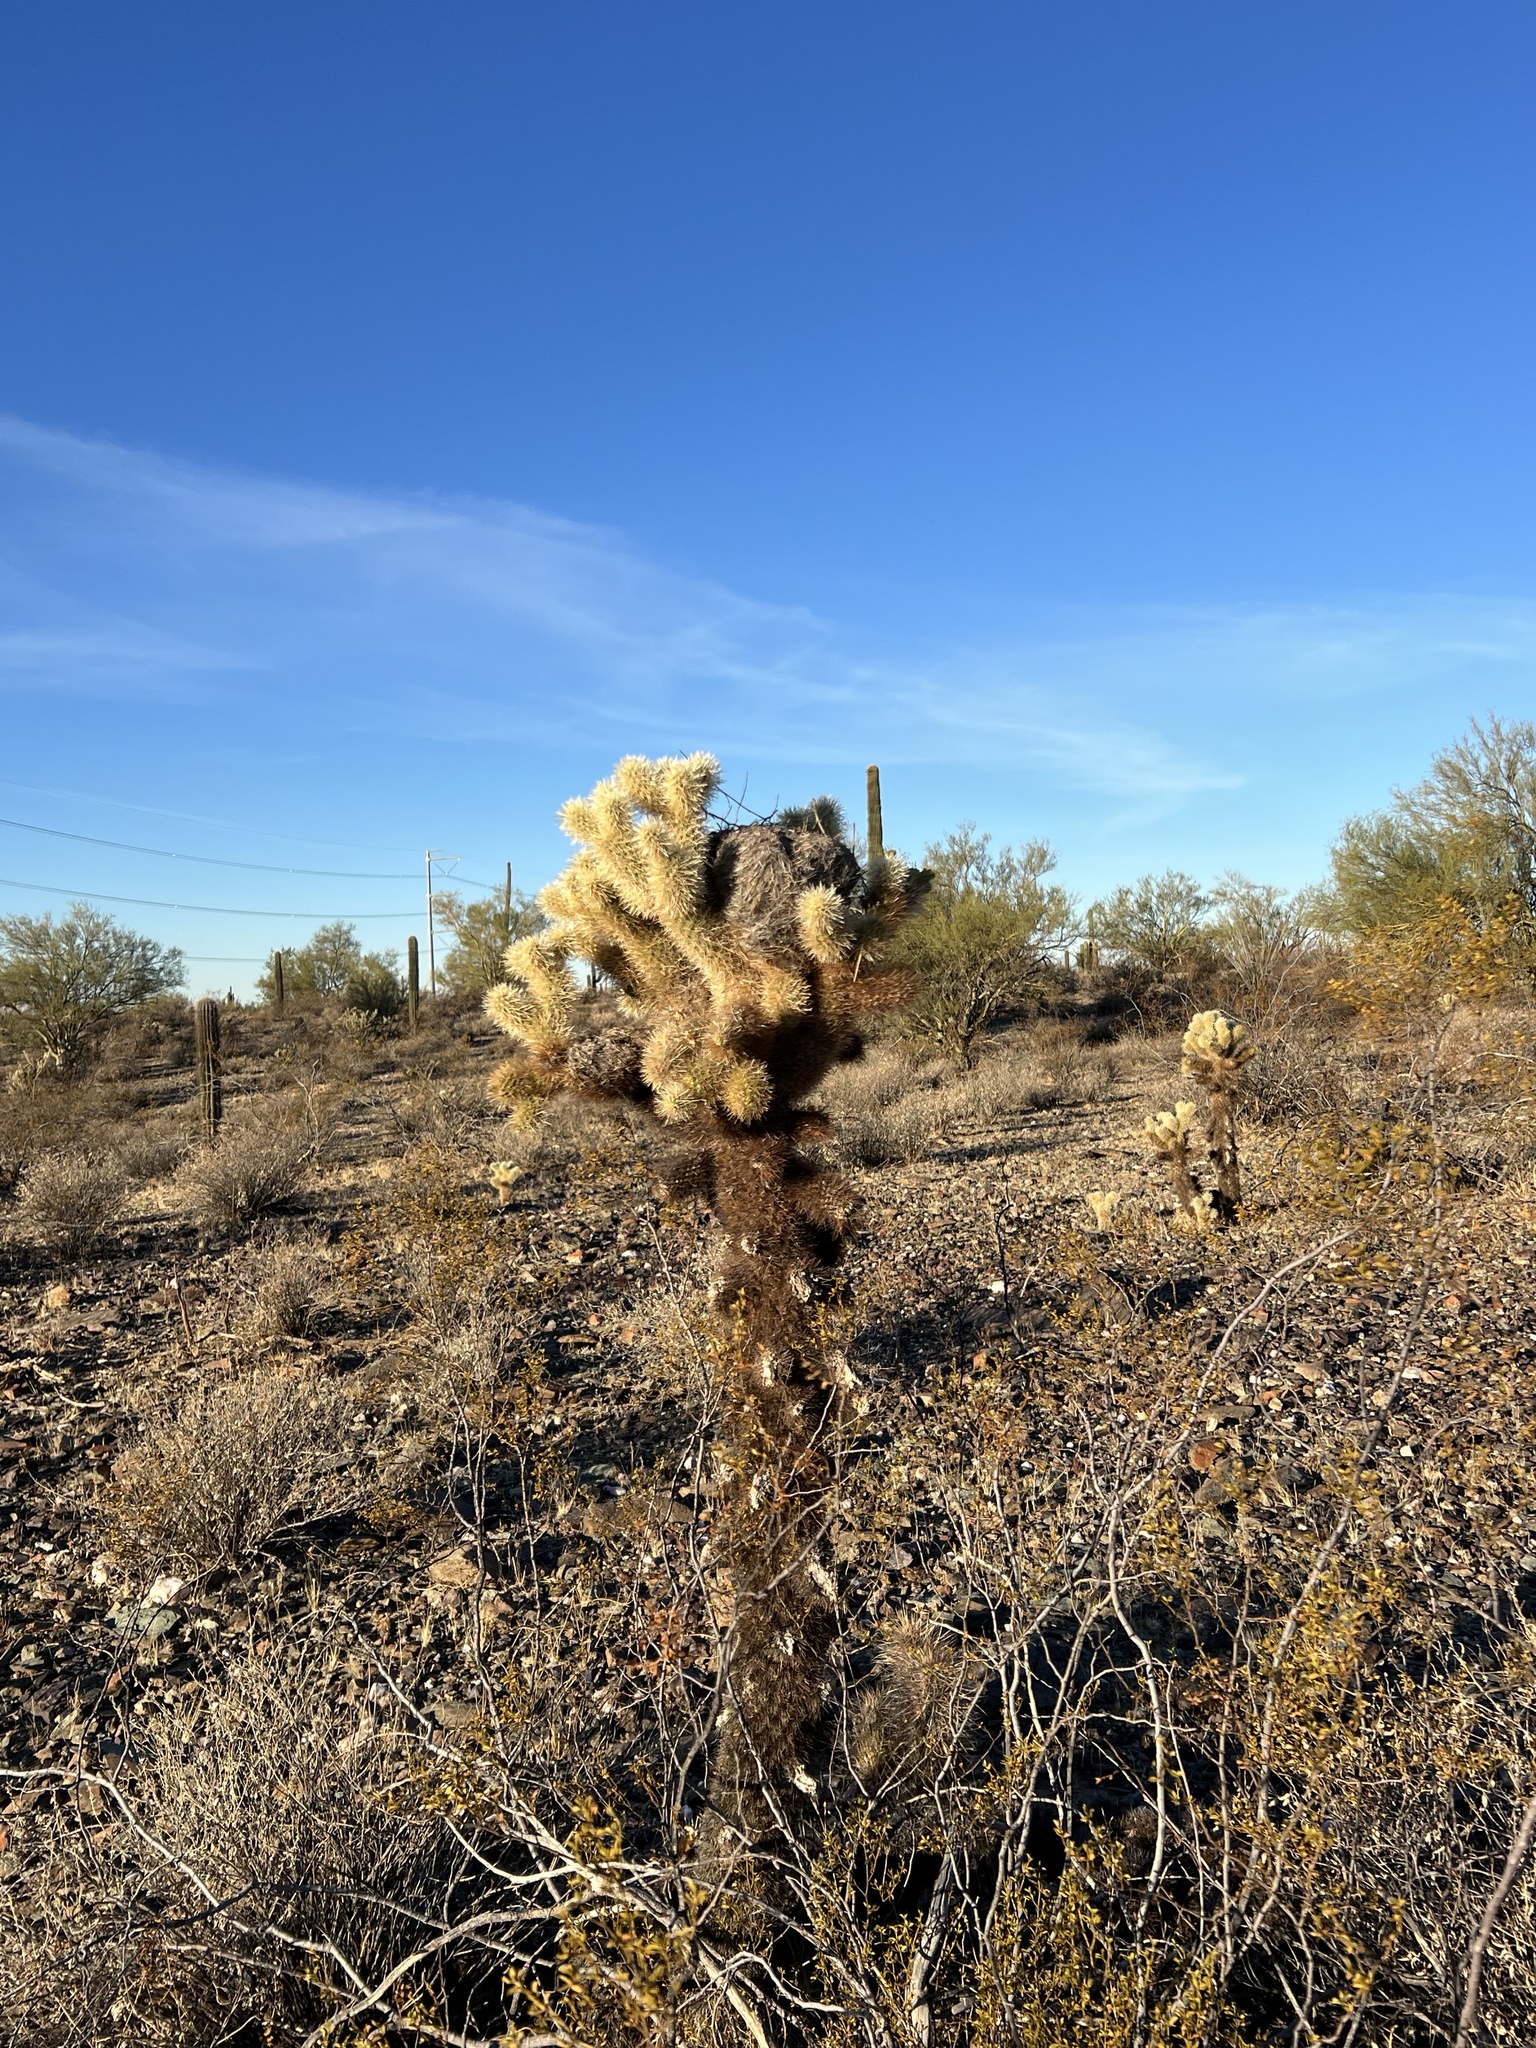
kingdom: Plantae
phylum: Tracheophyta
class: Magnoliopsida
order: Caryophyllales
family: Cactaceae
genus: Cylindropuntia
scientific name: Cylindropuntia fosbergii
